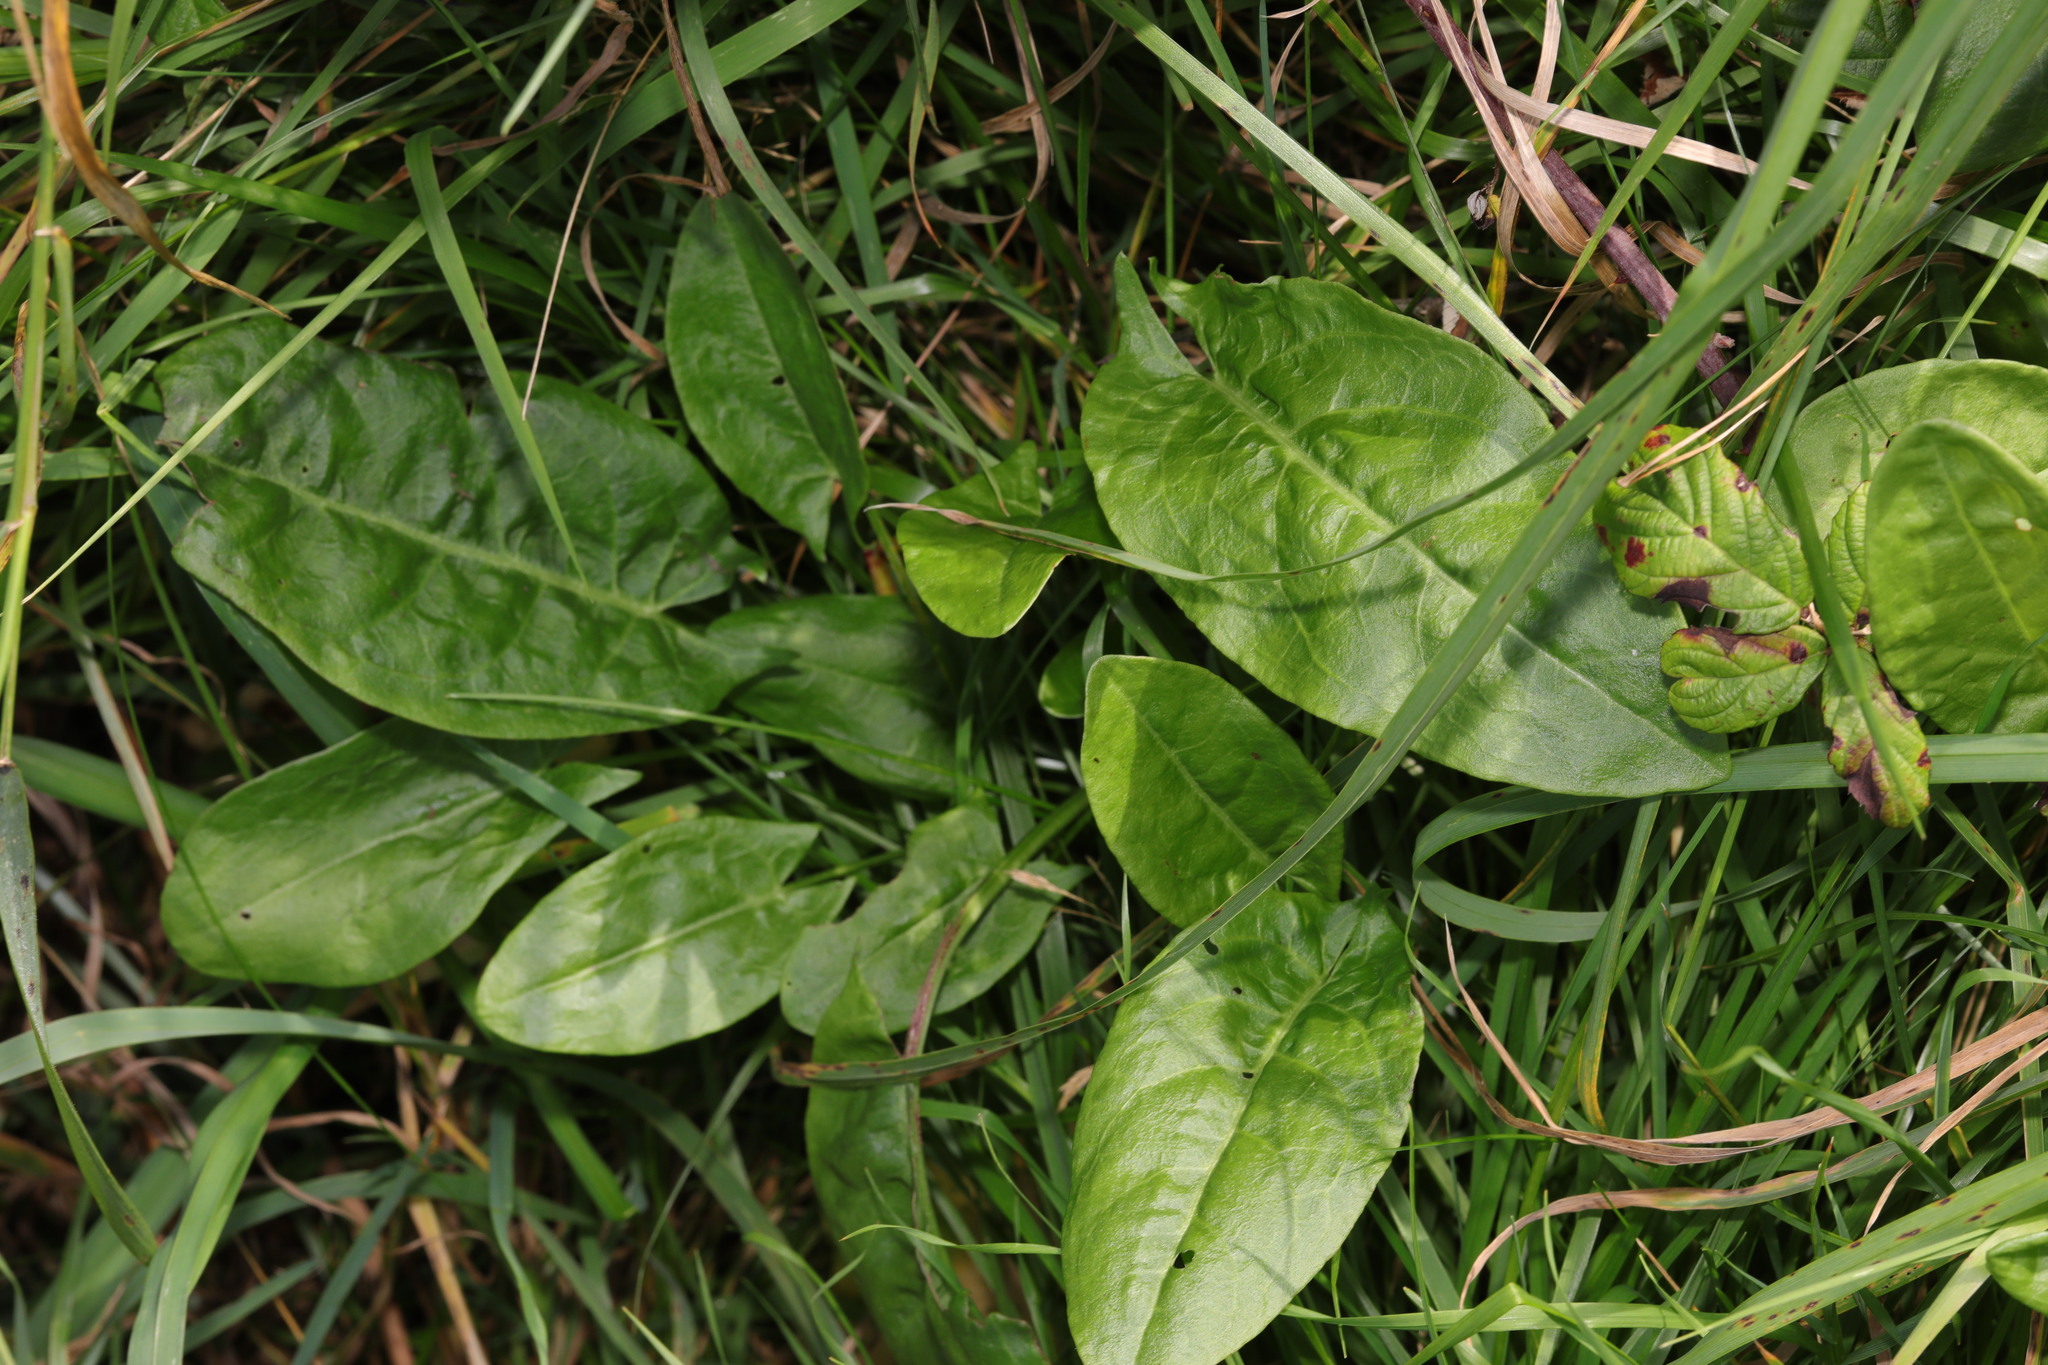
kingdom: Plantae
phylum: Tracheophyta
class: Magnoliopsida
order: Caryophyllales
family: Polygonaceae
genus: Rumex
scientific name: Rumex acetosa
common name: Garden sorrel
